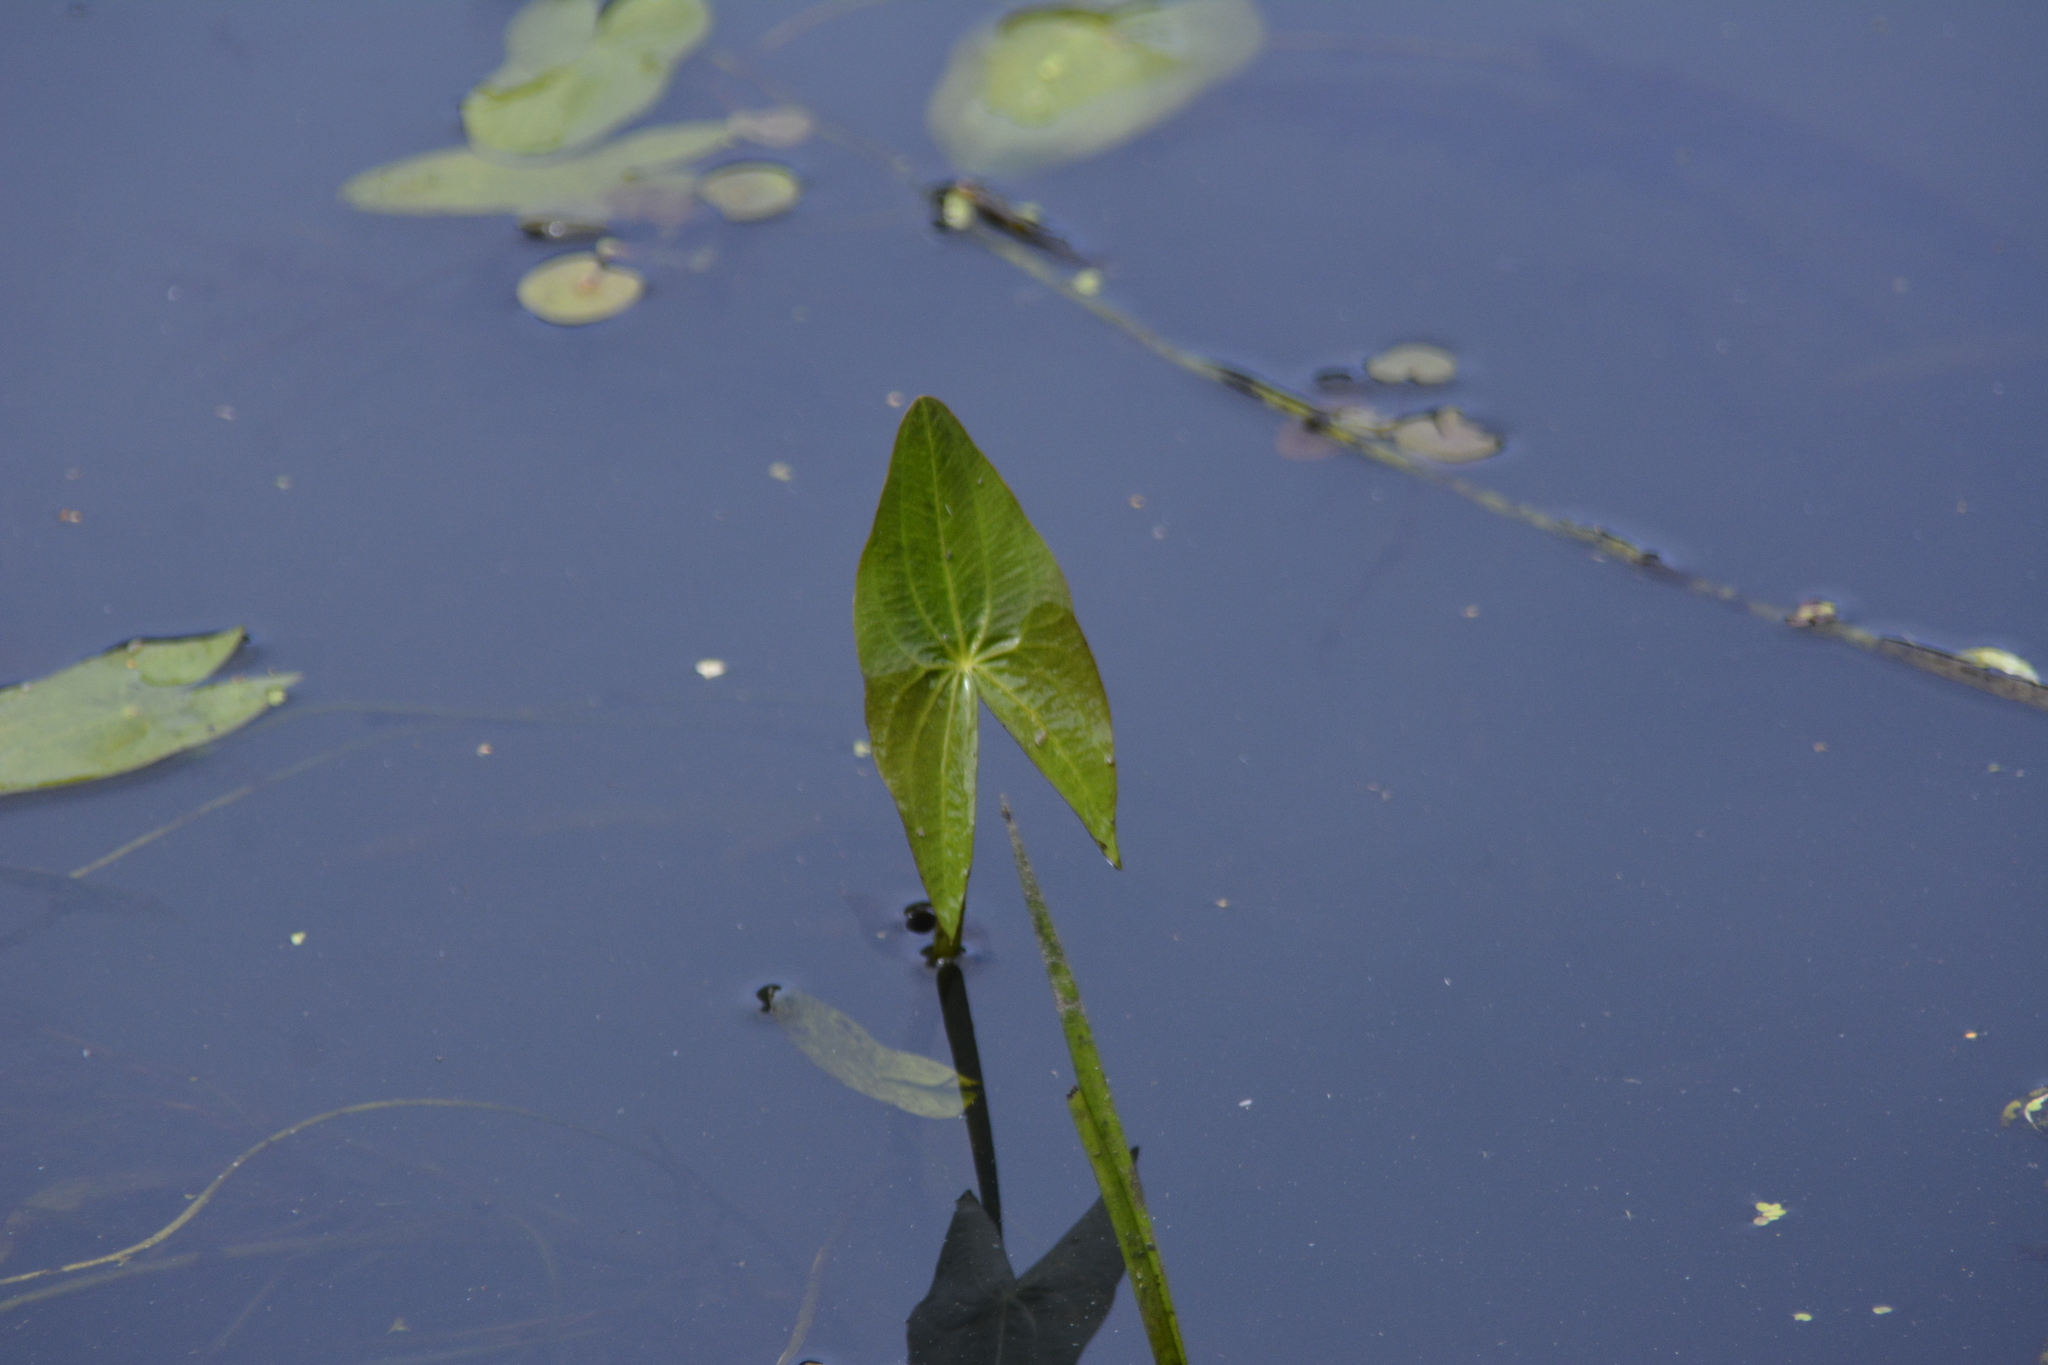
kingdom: Plantae
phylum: Tracheophyta
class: Liliopsida
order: Alismatales
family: Alismataceae
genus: Sagittaria
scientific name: Sagittaria sagittifolia
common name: Arrowhead
